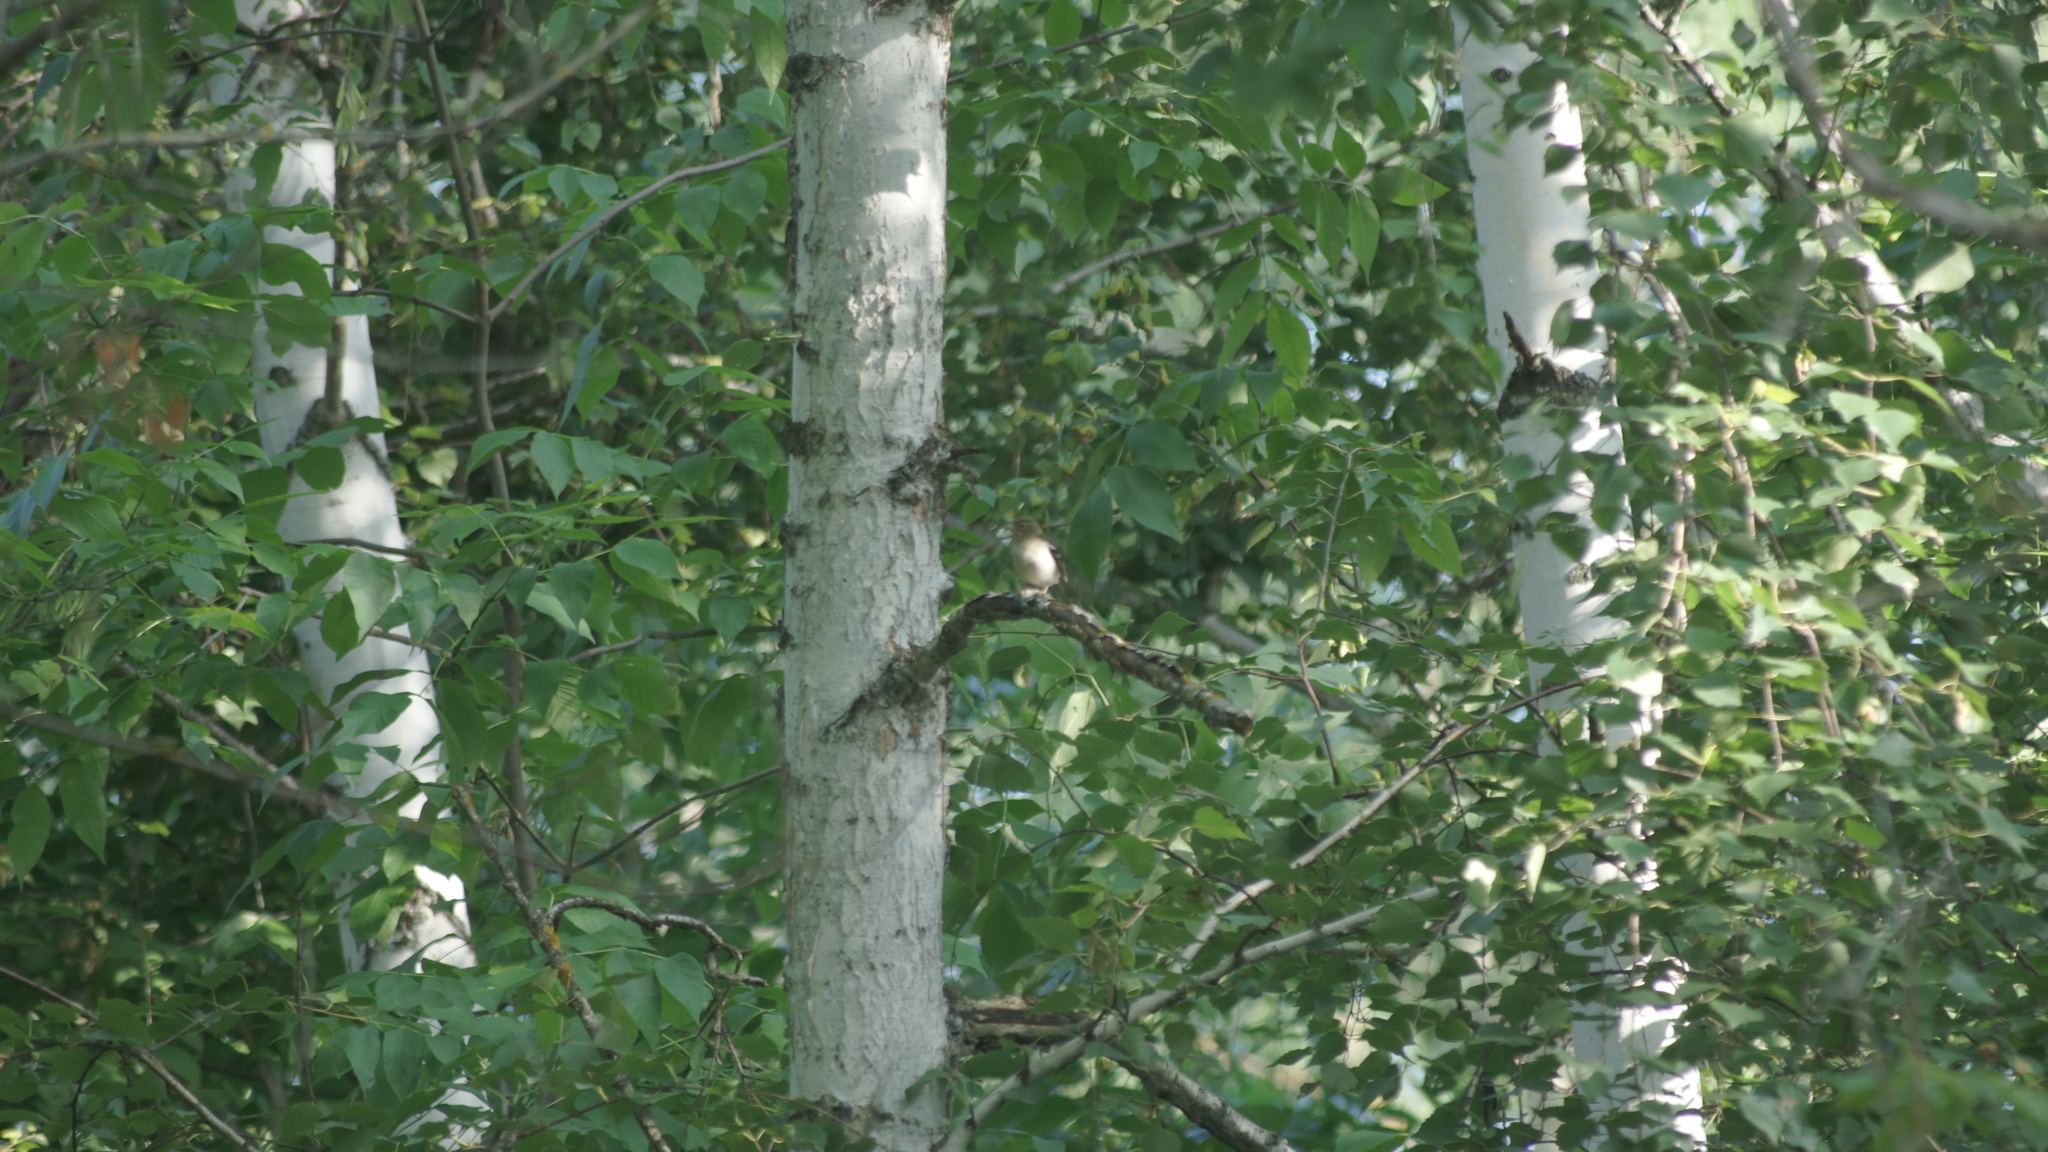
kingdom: Animalia
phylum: Chordata
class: Aves
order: Passeriformes
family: Fringillidae
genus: Fringilla
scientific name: Fringilla coelebs
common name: Common chaffinch
